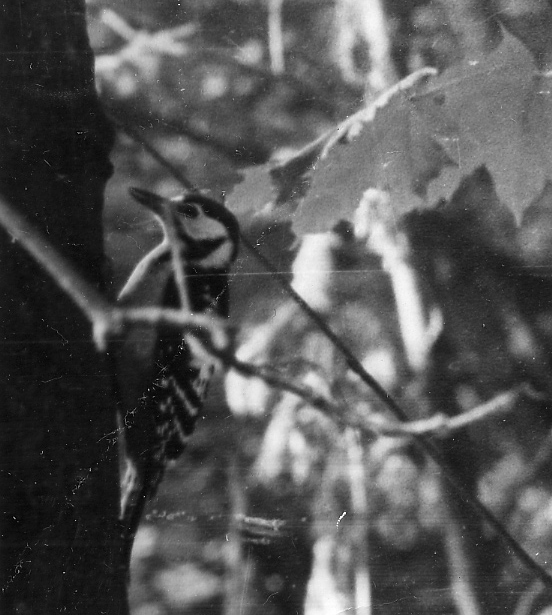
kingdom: Animalia
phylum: Chordata
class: Aves
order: Piciformes
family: Picidae
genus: Dendrocopos
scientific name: Dendrocopos major
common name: Great spotted woodpecker
